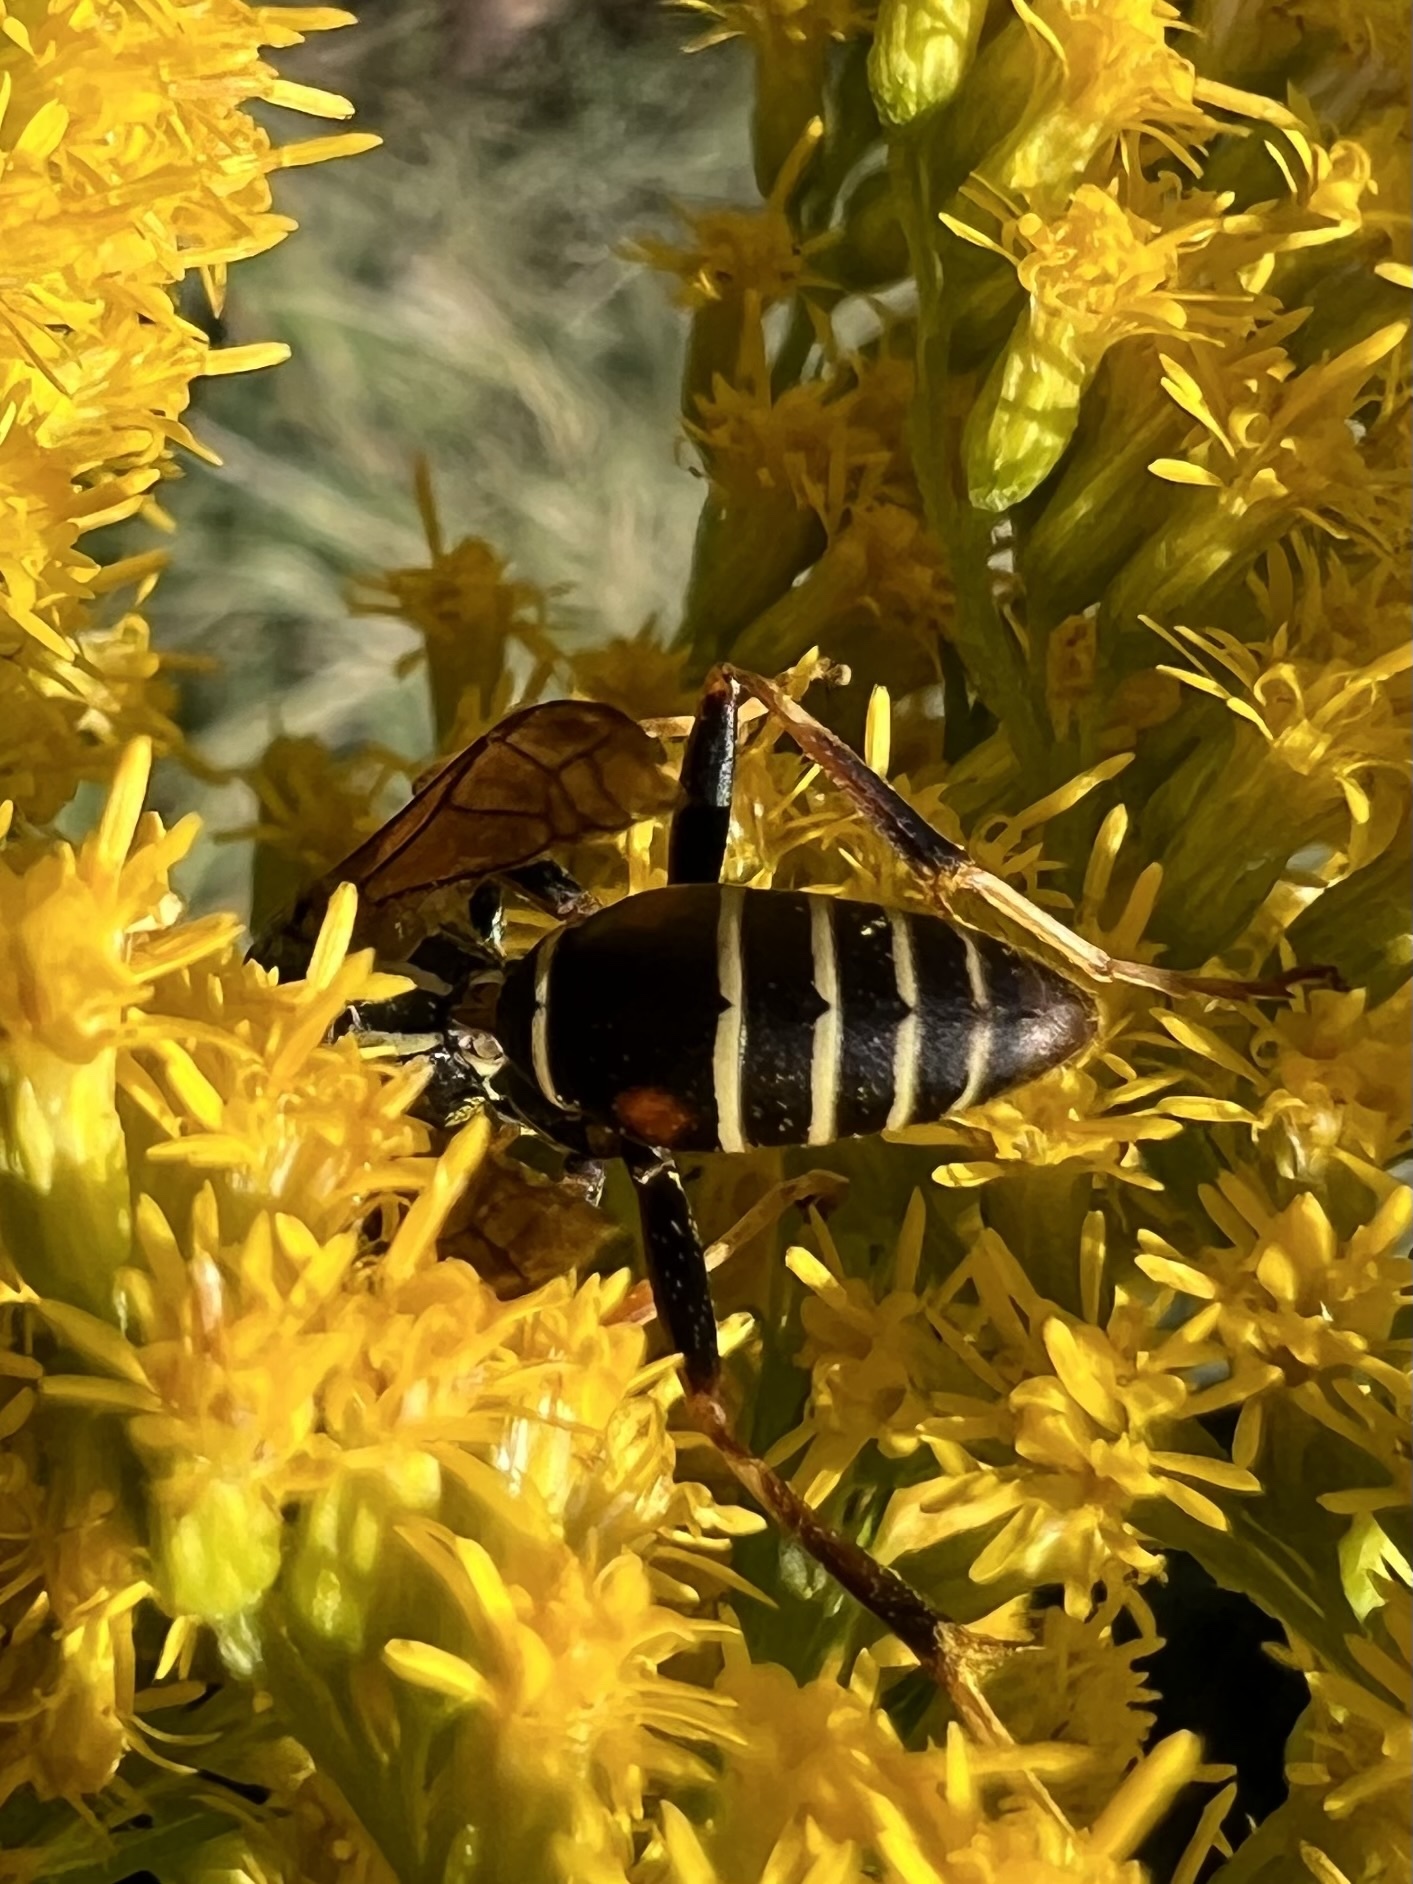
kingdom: Animalia
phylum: Arthropoda
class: Insecta
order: Hymenoptera
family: Eumenidae
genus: Polistes
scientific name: Polistes fuscatus
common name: Dark paper wasp
